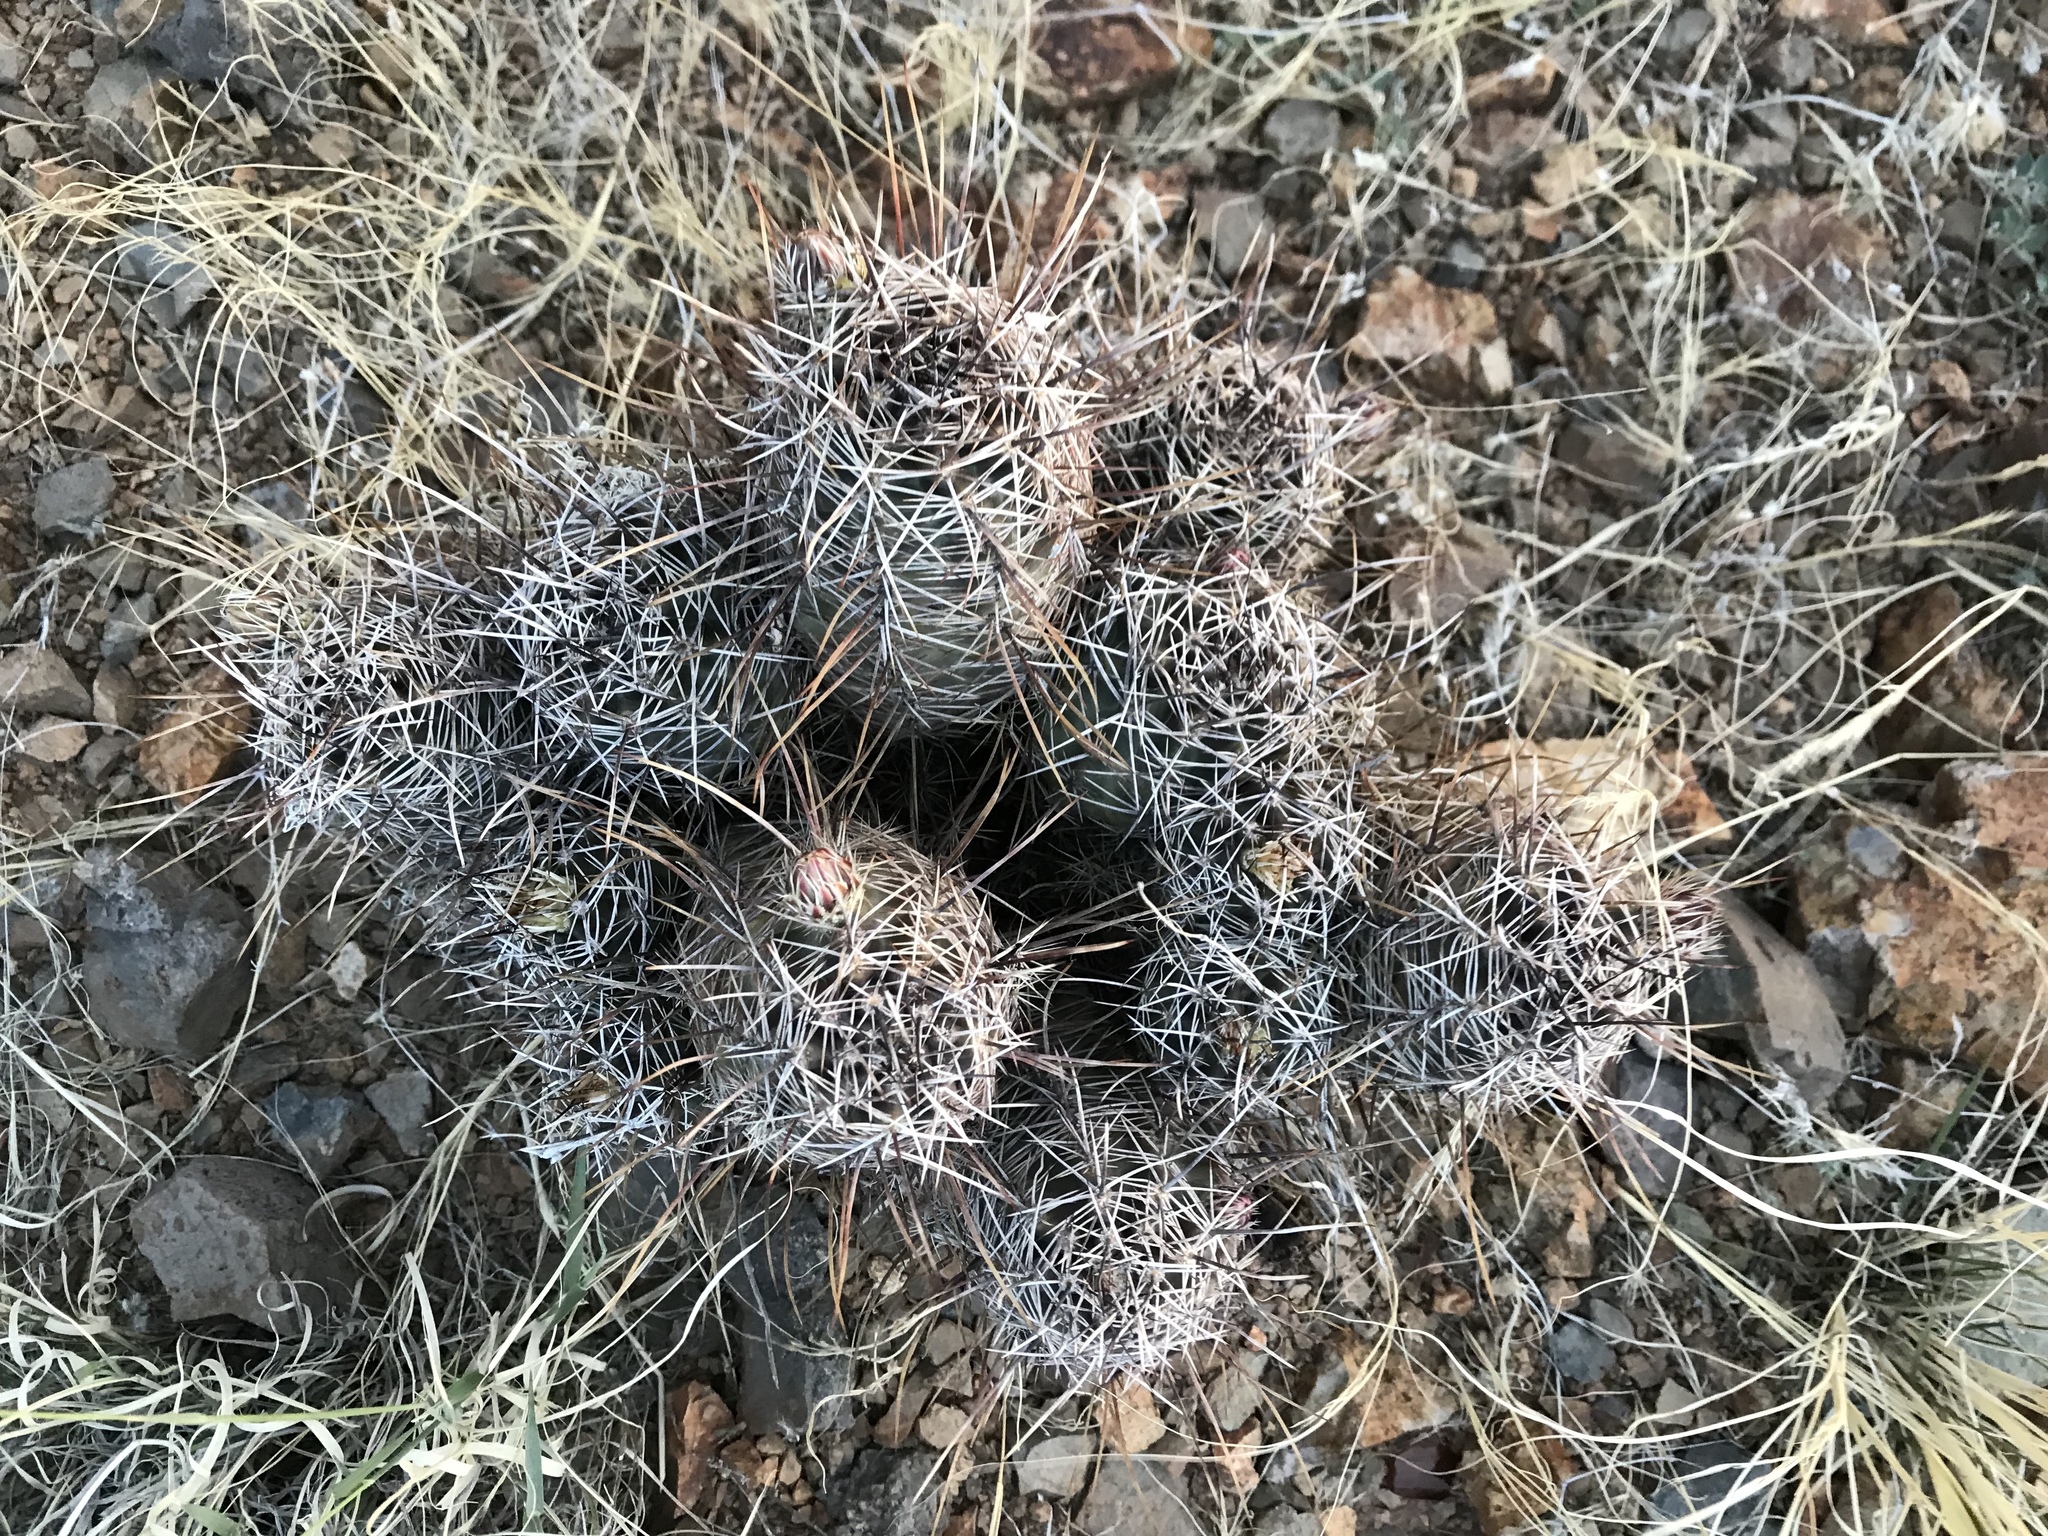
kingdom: Plantae
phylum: Tracheophyta
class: Magnoliopsida
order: Caryophyllales
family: Cactaceae
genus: Echinocereus
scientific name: Echinocereus fendleri
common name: Fendler's hedgehog cactus
